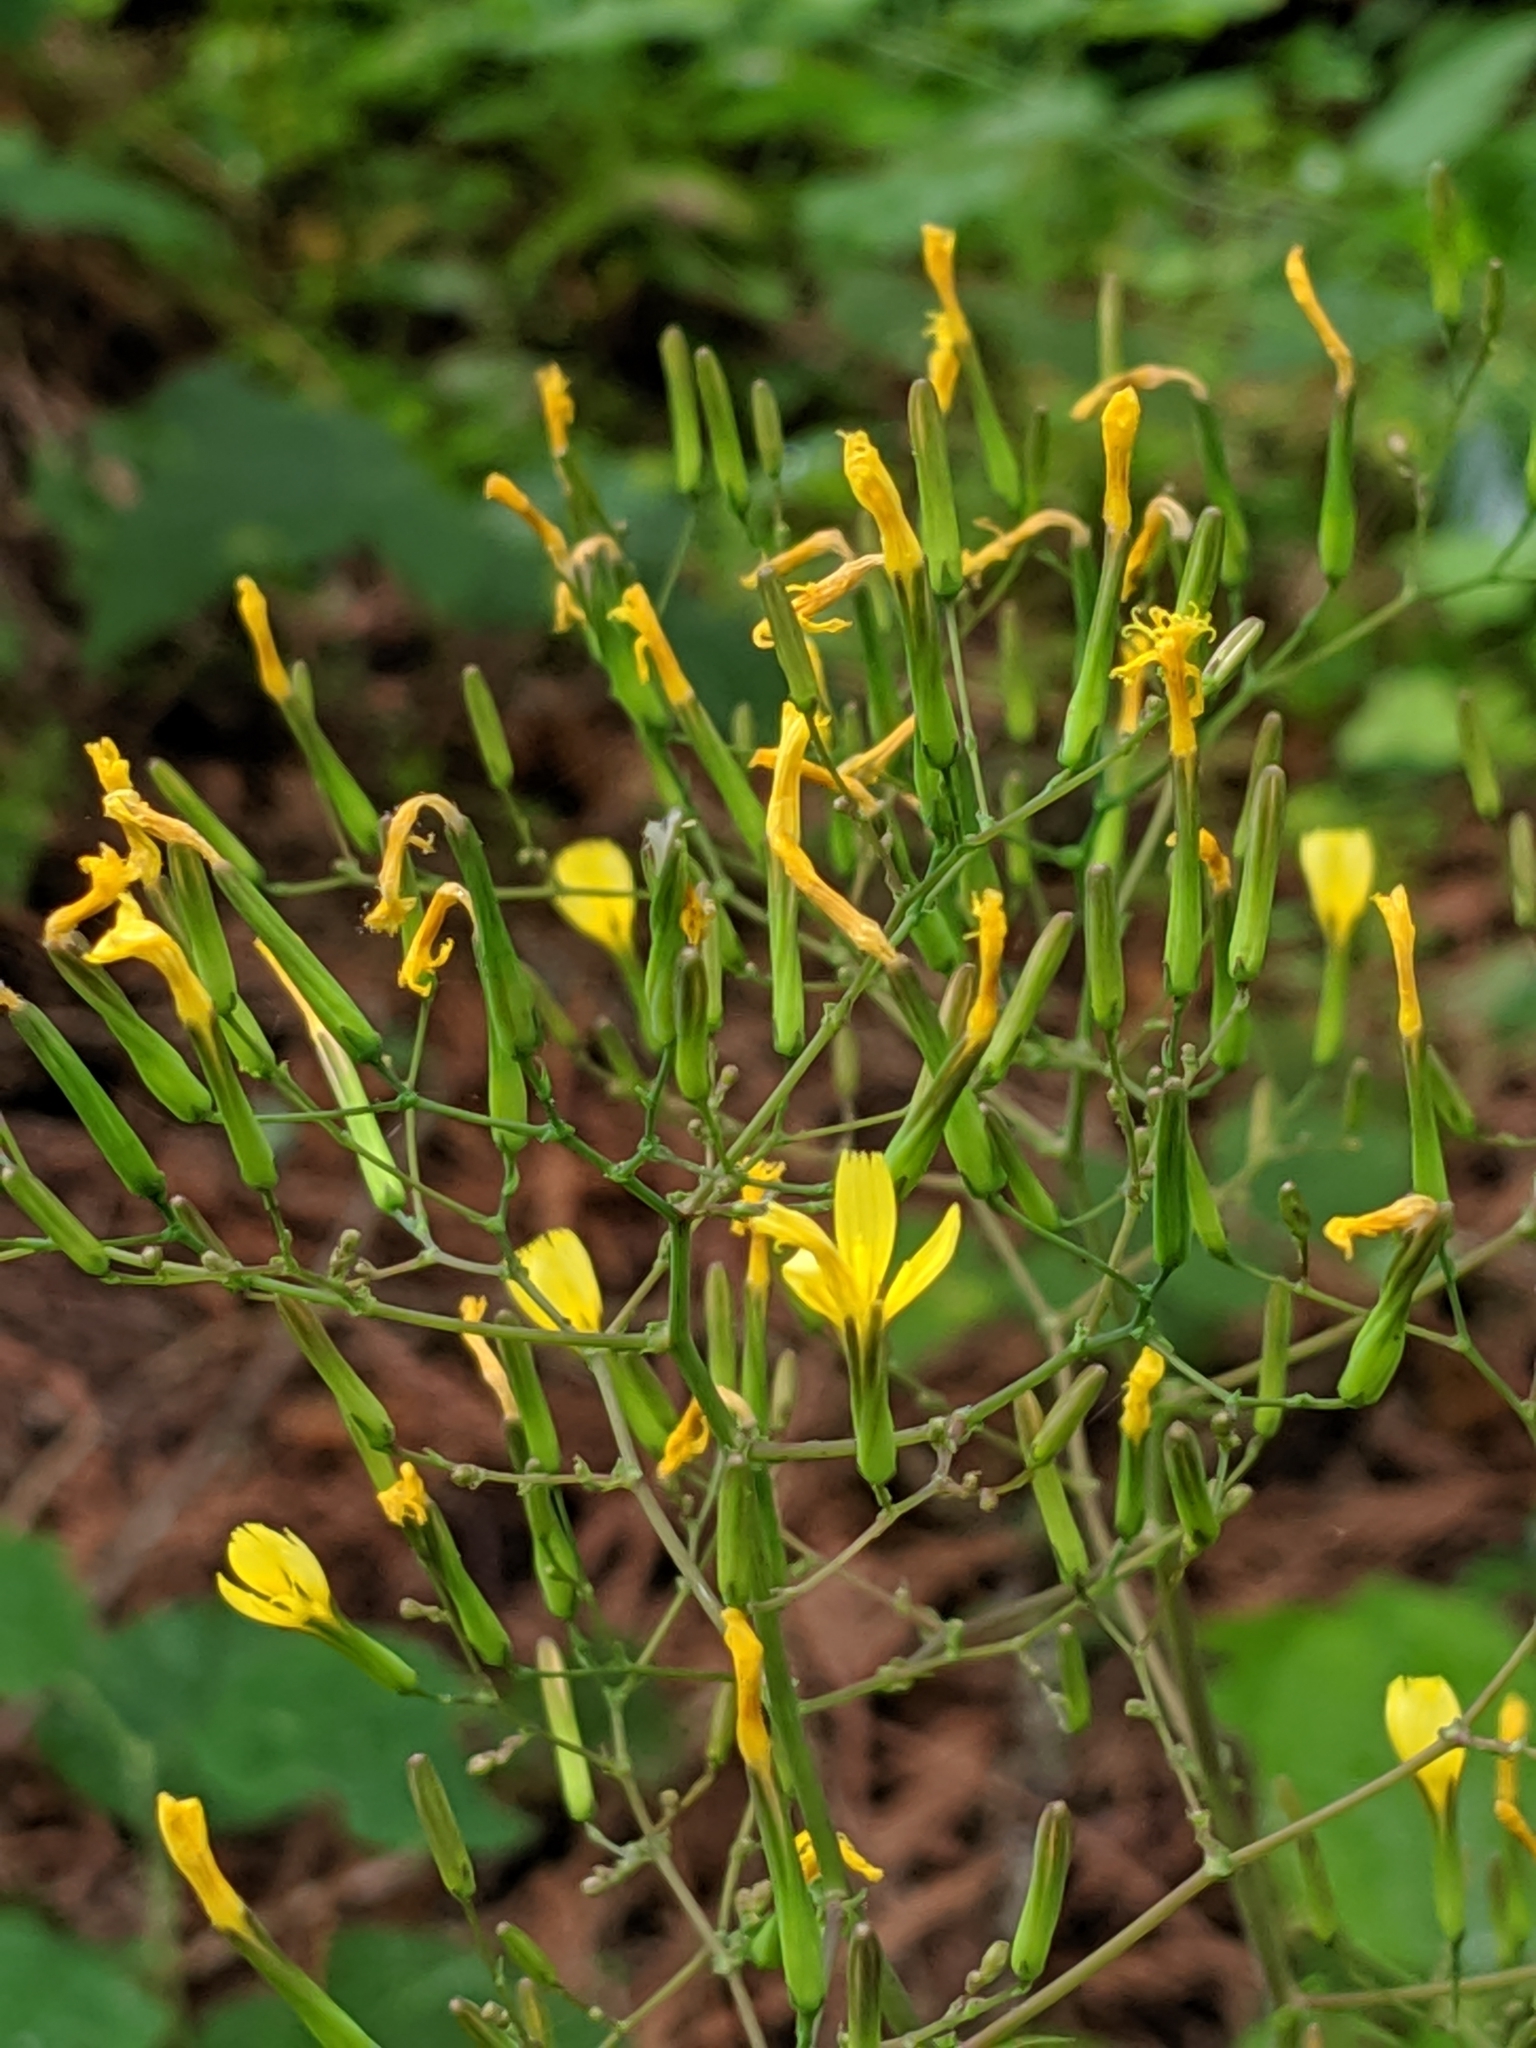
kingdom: Plantae
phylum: Tracheophyta
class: Magnoliopsida
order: Asterales
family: Asteraceae
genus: Mycelis
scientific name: Mycelis muralis
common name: Wall lettuce
